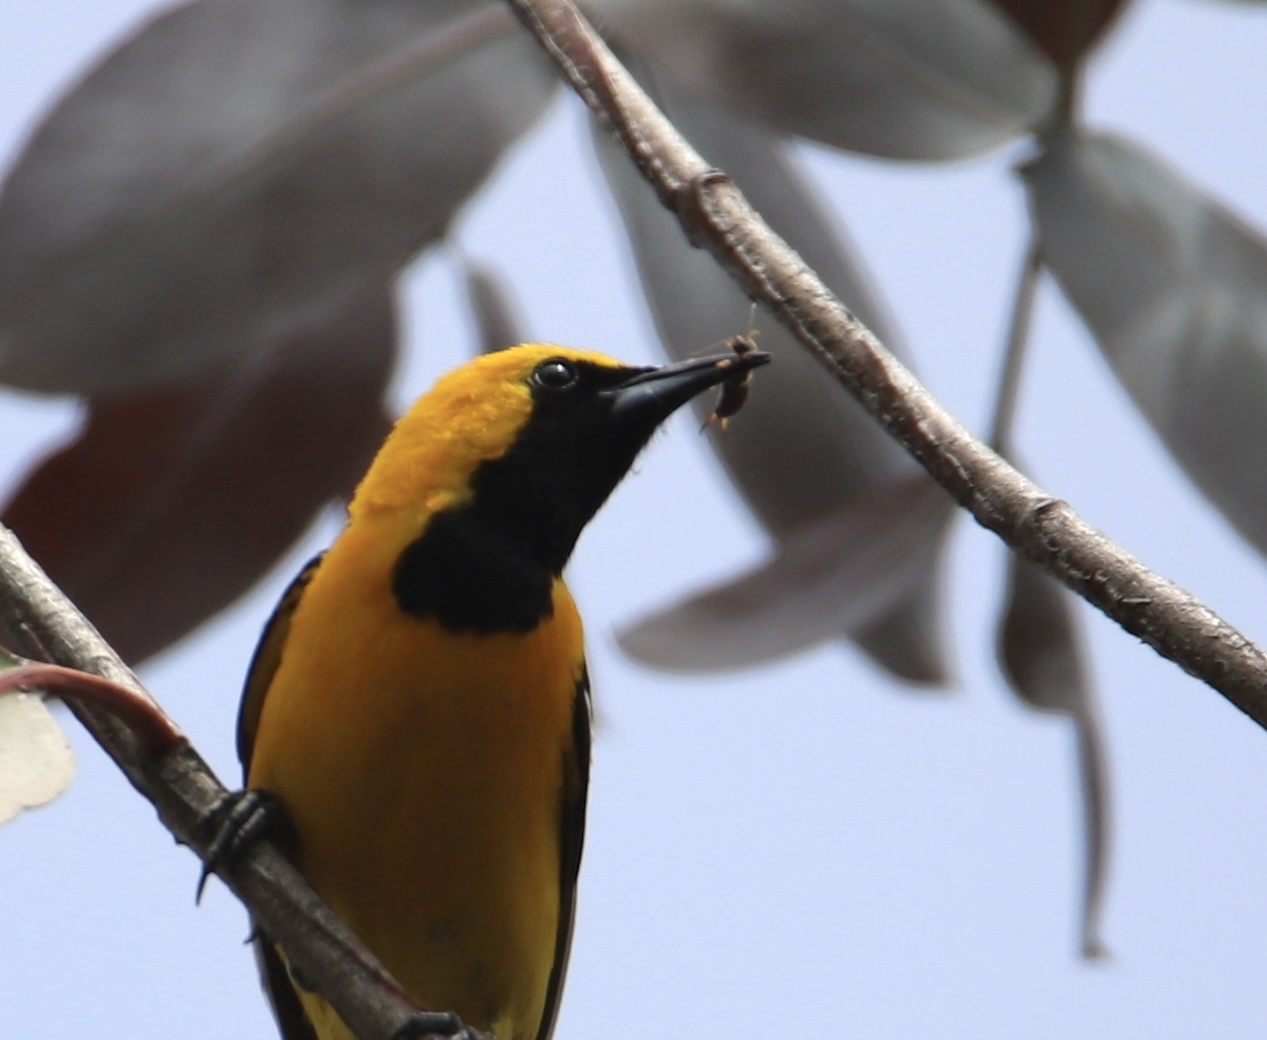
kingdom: Animalia
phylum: Chordata
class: Aves
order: Passeriformes
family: Icteridae
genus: Icterus
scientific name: Icterus cucullatus
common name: Hooded oriole
